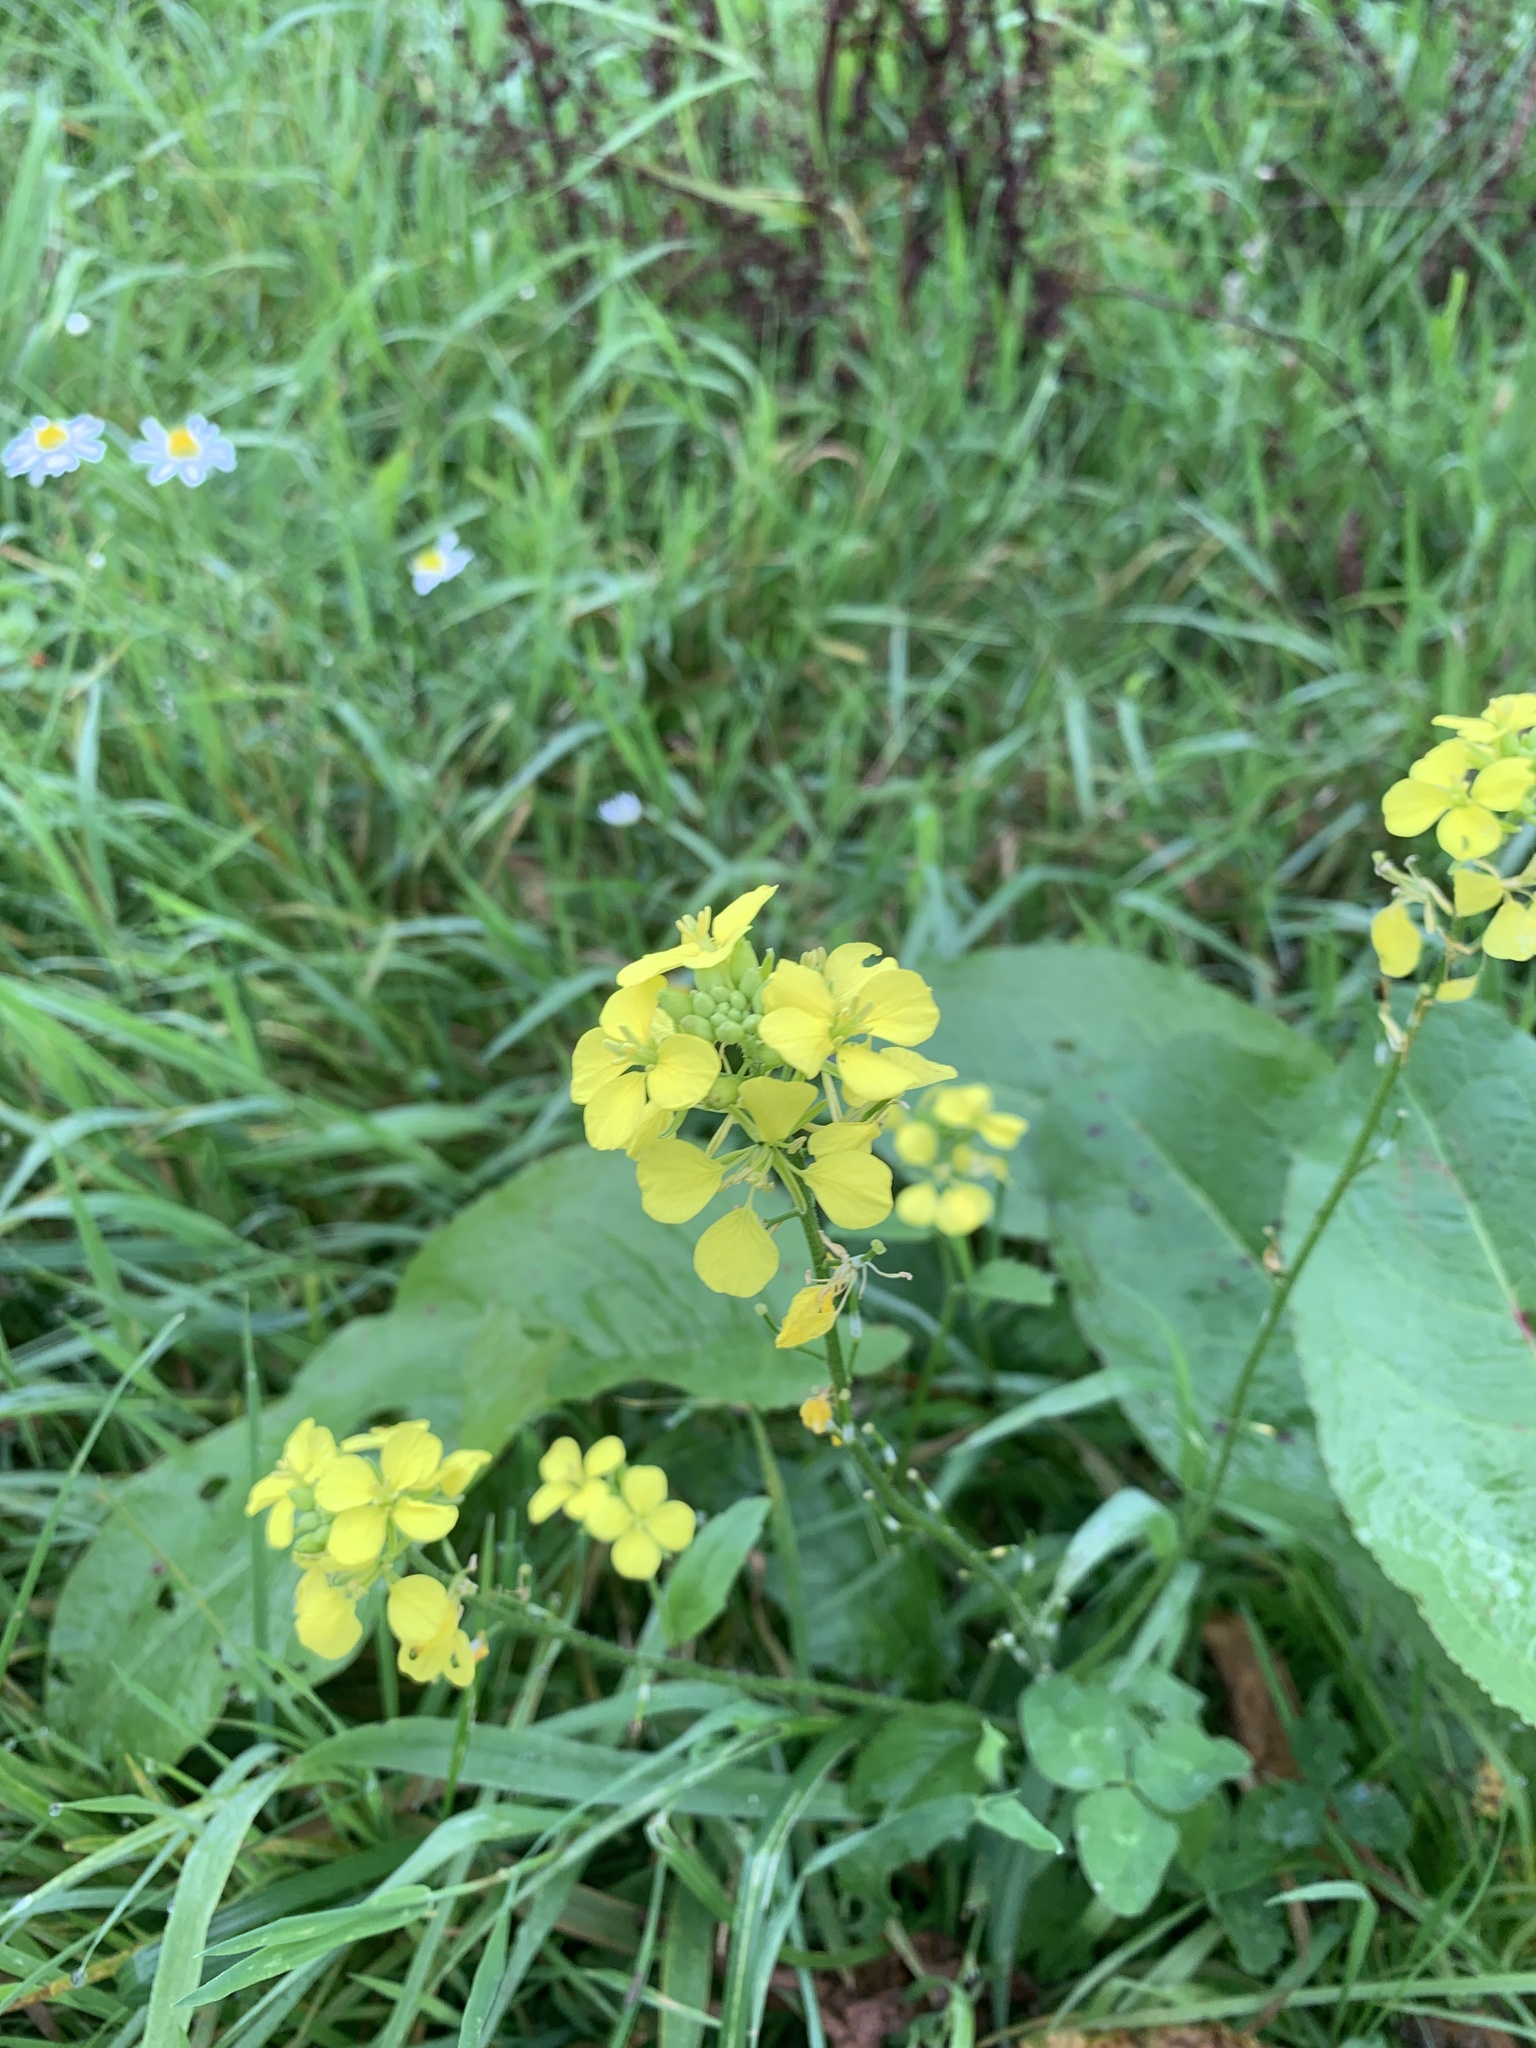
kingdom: Plantae
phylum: Tracheophyta
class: Magnoliopsida
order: Brassicales
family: Brassicaceae
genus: Sinapis
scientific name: Sinapis arvensis
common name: Charlock
